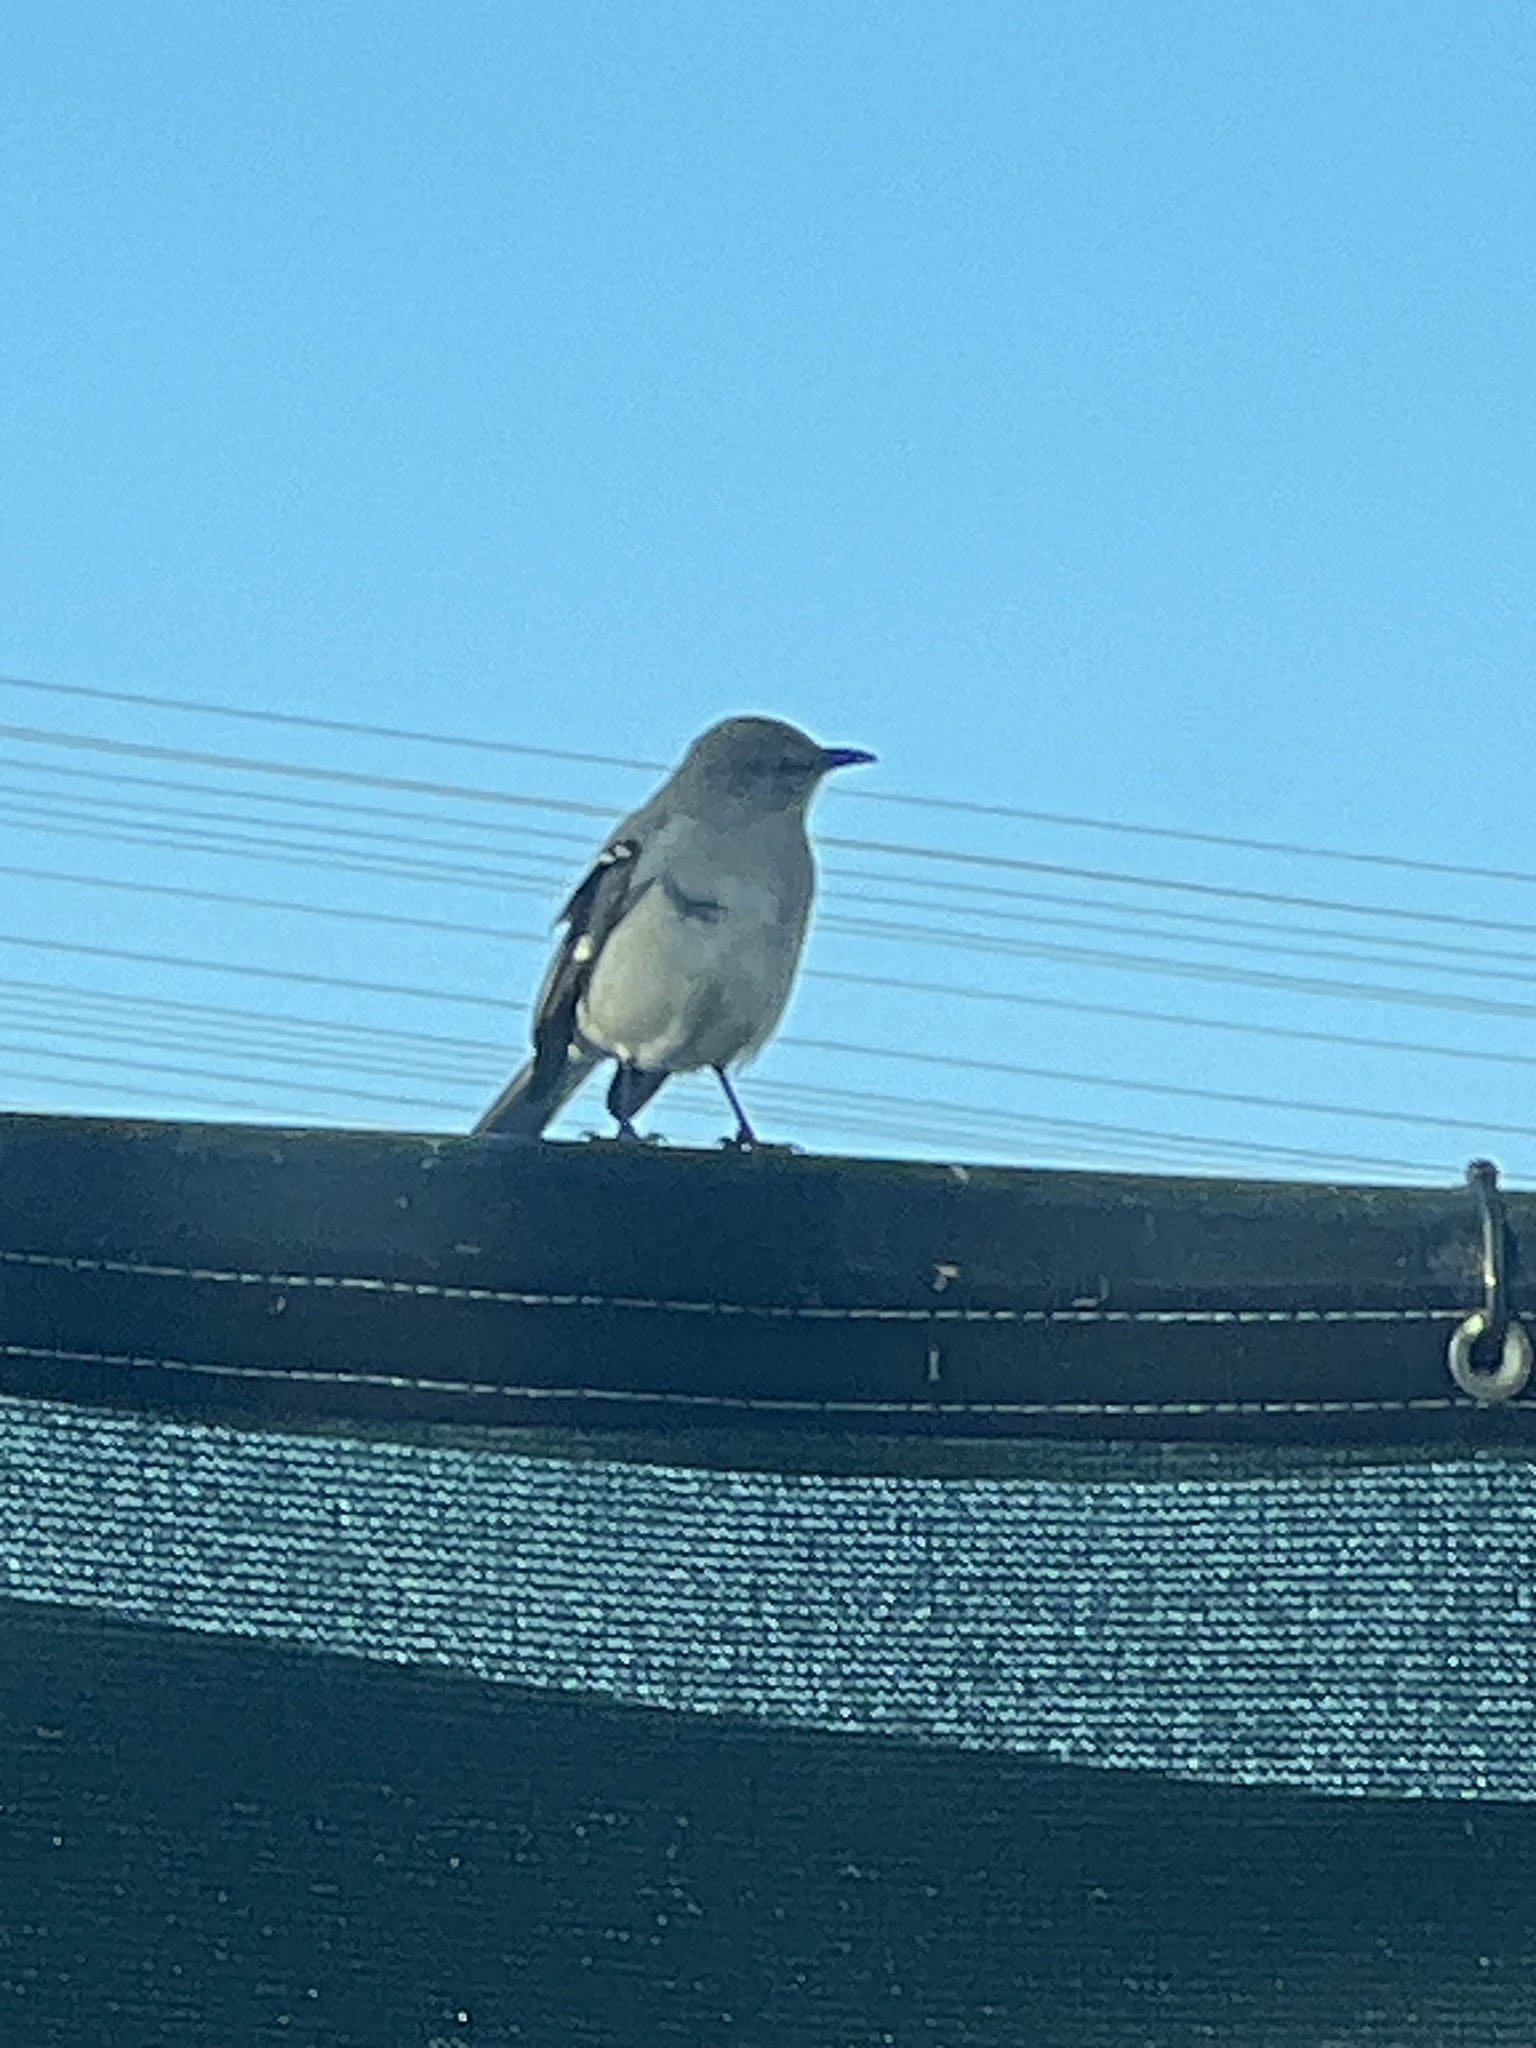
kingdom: Animalia
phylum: Chordata
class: Aves
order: Passeriformes
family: Mimidae
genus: Mimus
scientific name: Mimus polyglottos
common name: Northern mockingbird
